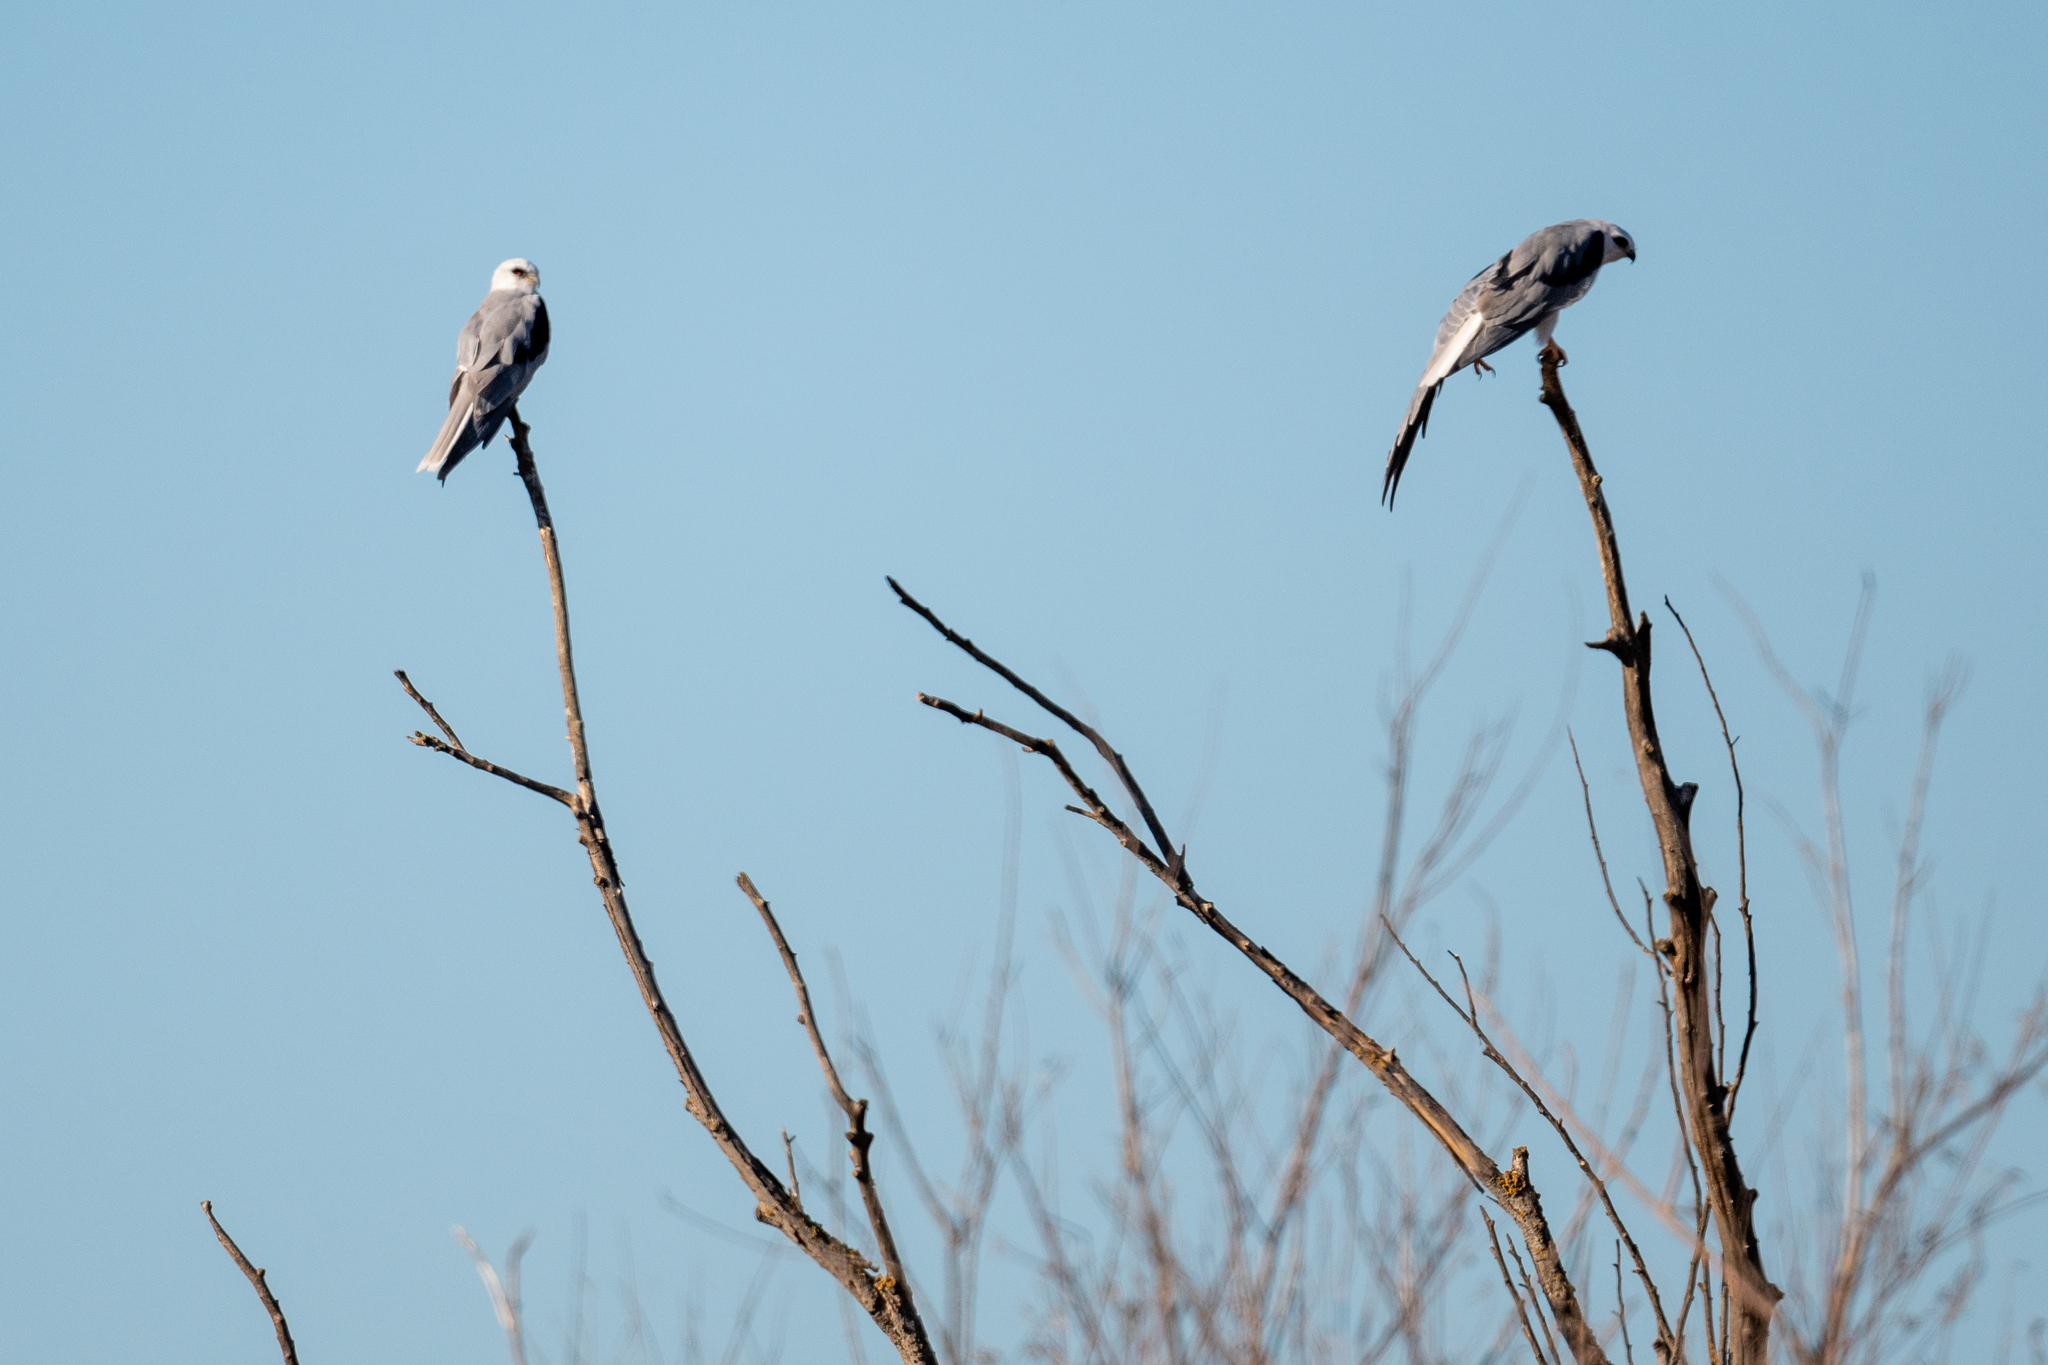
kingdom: Animalia
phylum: Chordata
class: Aves
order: Accipitriformes
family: Accipitridae
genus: Elanus
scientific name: Elanus leucurus
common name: White-tailed kite
